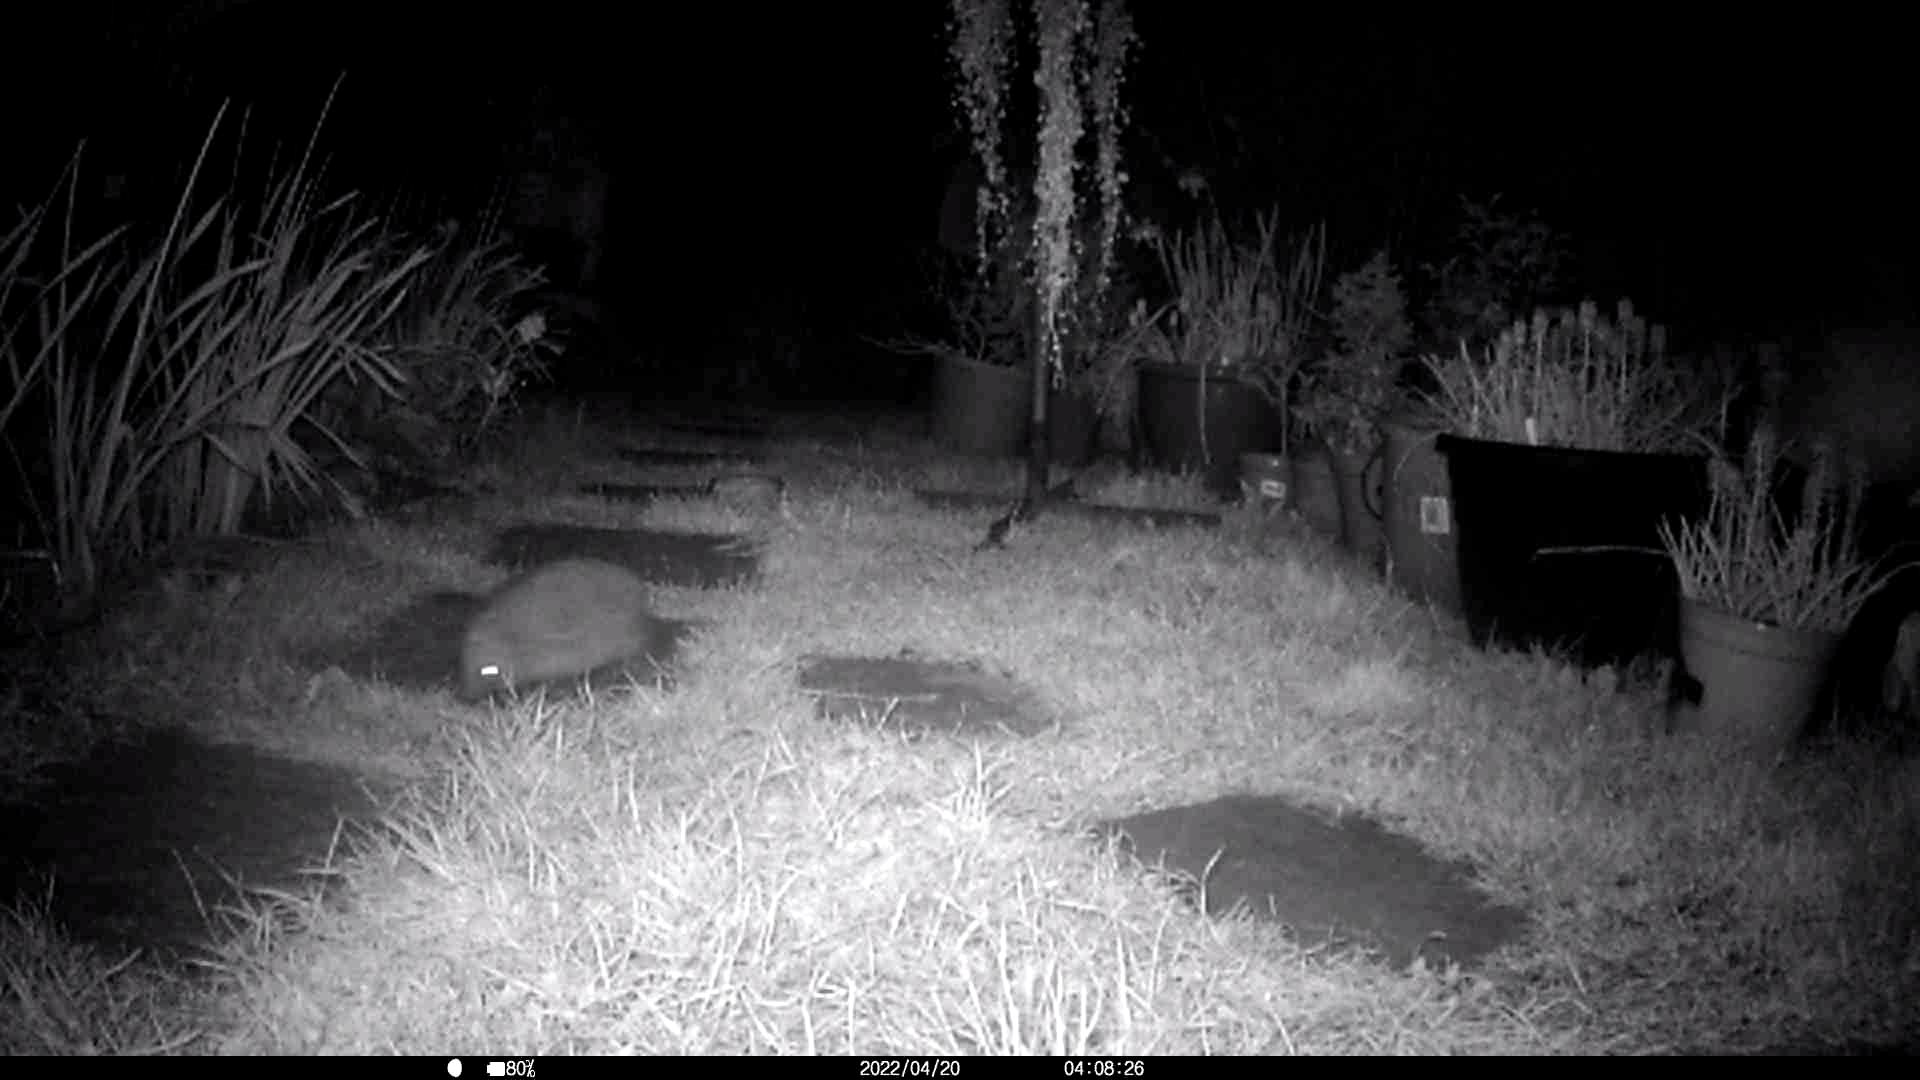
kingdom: Animalia
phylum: Chordata
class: Mammalia
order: Erinaceomorpha
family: Erinaceidae
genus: Erinaceus
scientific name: Erinaceus europaeus
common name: West european hedgehog
